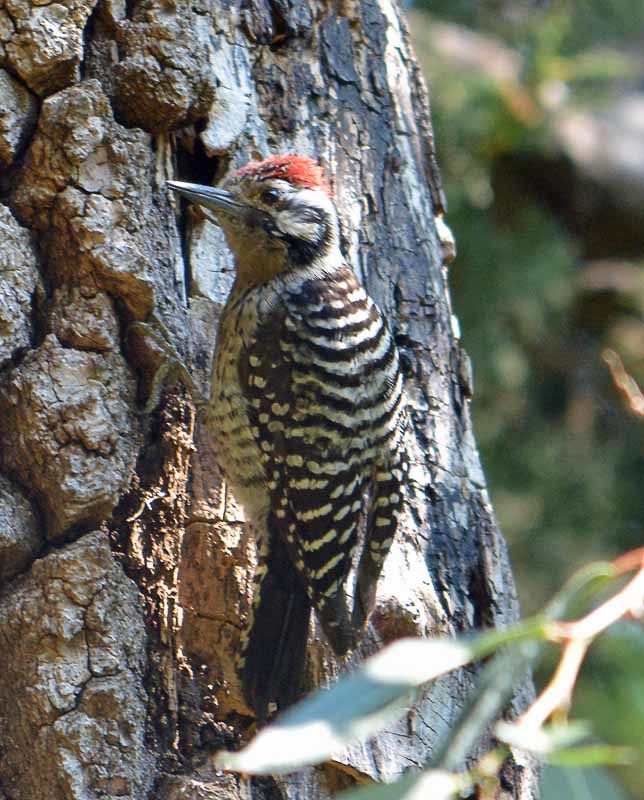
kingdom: Animalia
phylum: Chordata
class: Aves
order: Piciformes
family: Picidae
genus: Dryobates
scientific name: Dryobates scalaris
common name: Ladder-backed woodpecker
